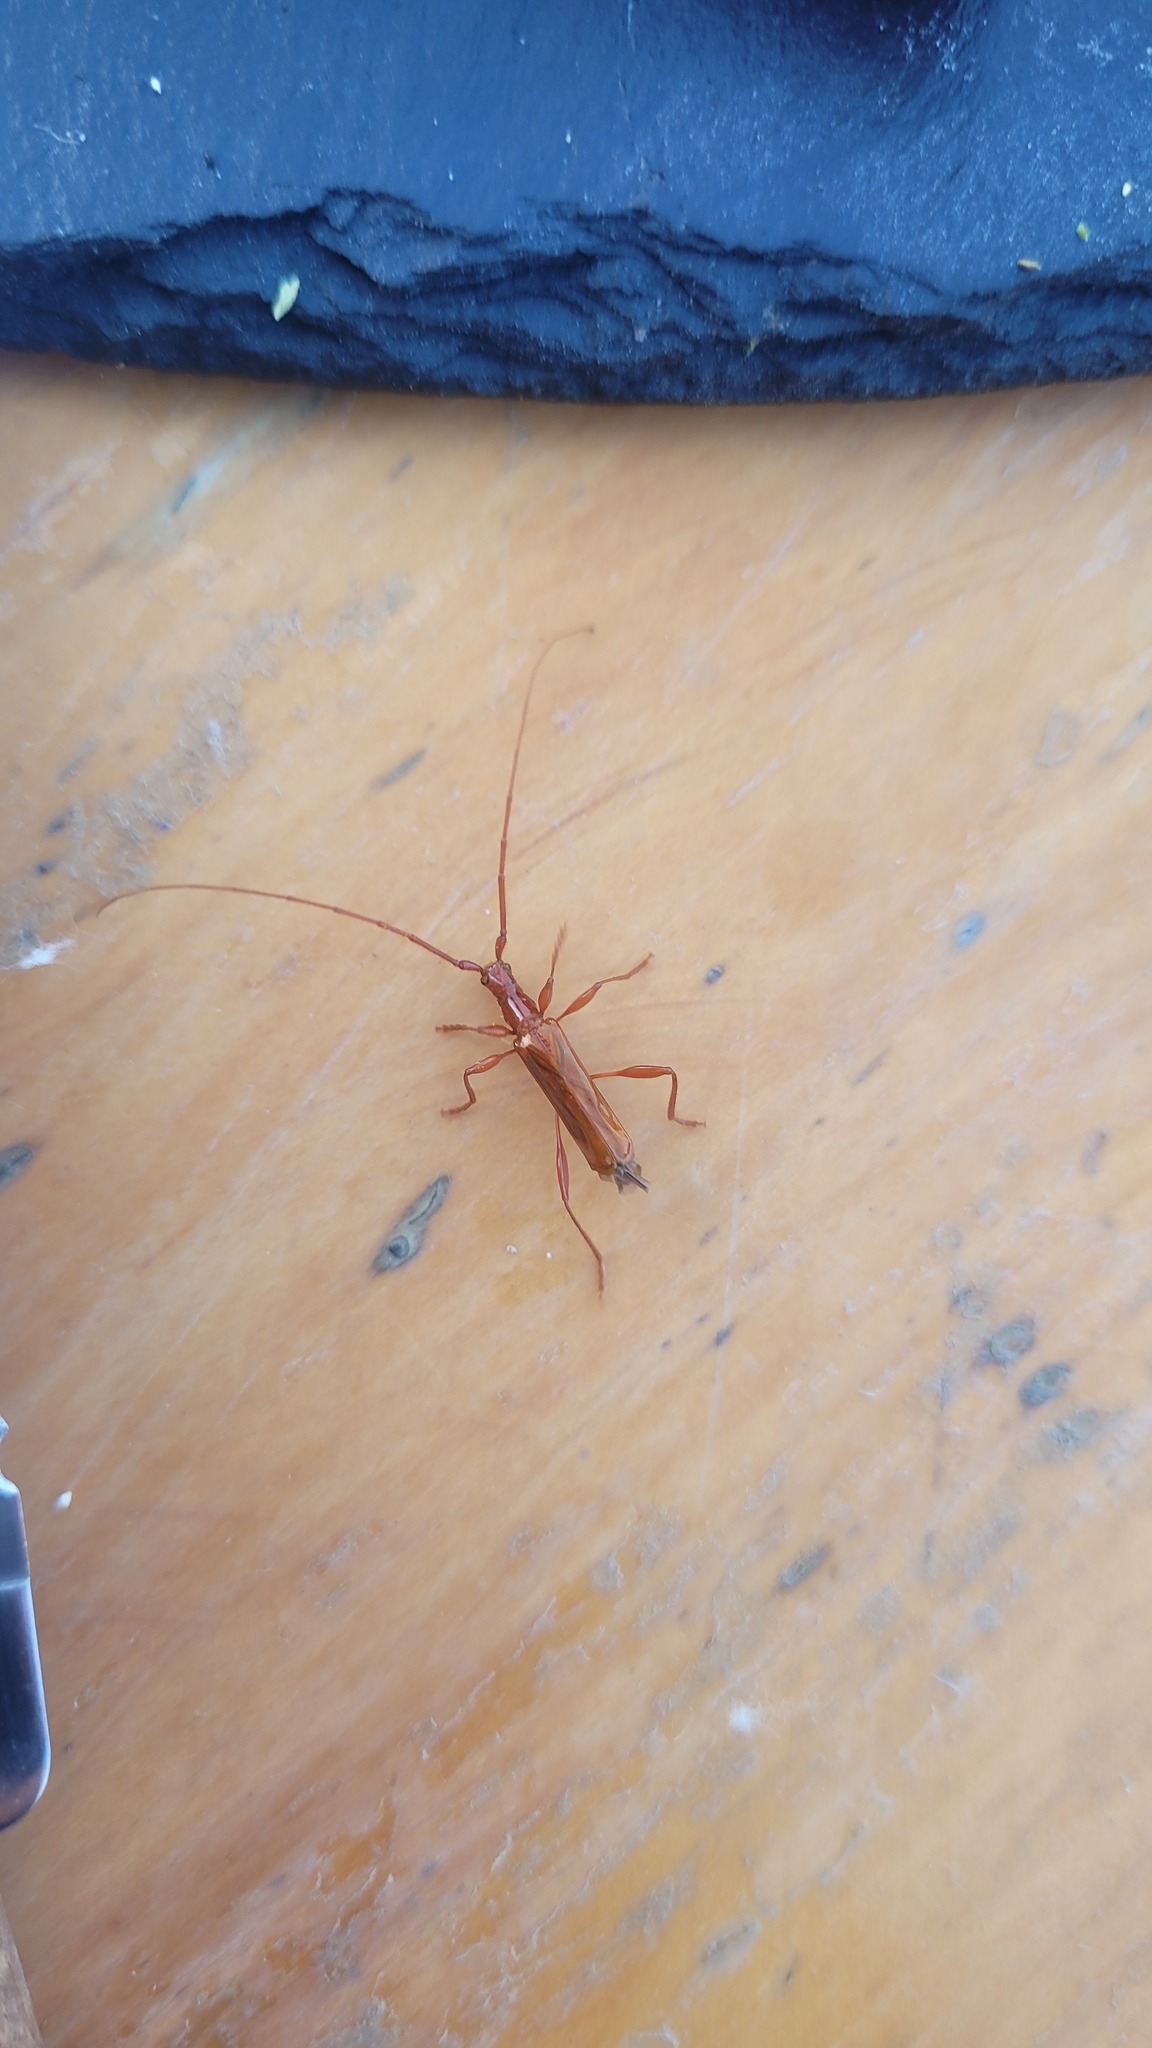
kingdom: Animalia
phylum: Arthropoda
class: Insecta
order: Coleoptera
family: Cerambycidae
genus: Chenoderus
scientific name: Chenoderus testaceus
